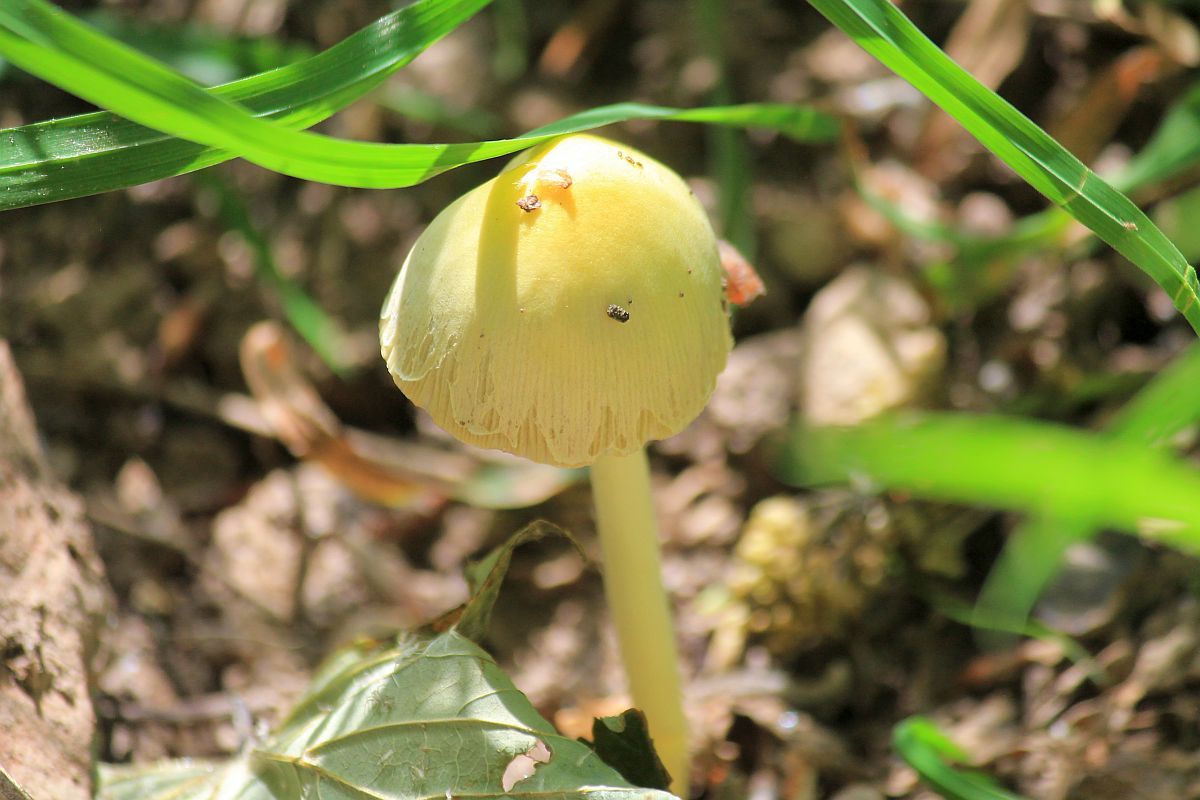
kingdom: Fungi
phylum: Basidiomycota
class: Agaricomycetes
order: Agaricales
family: Bolbitiaceae
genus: Bolbitius
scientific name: Bolbitius titubans
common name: Yellow fieldcap
